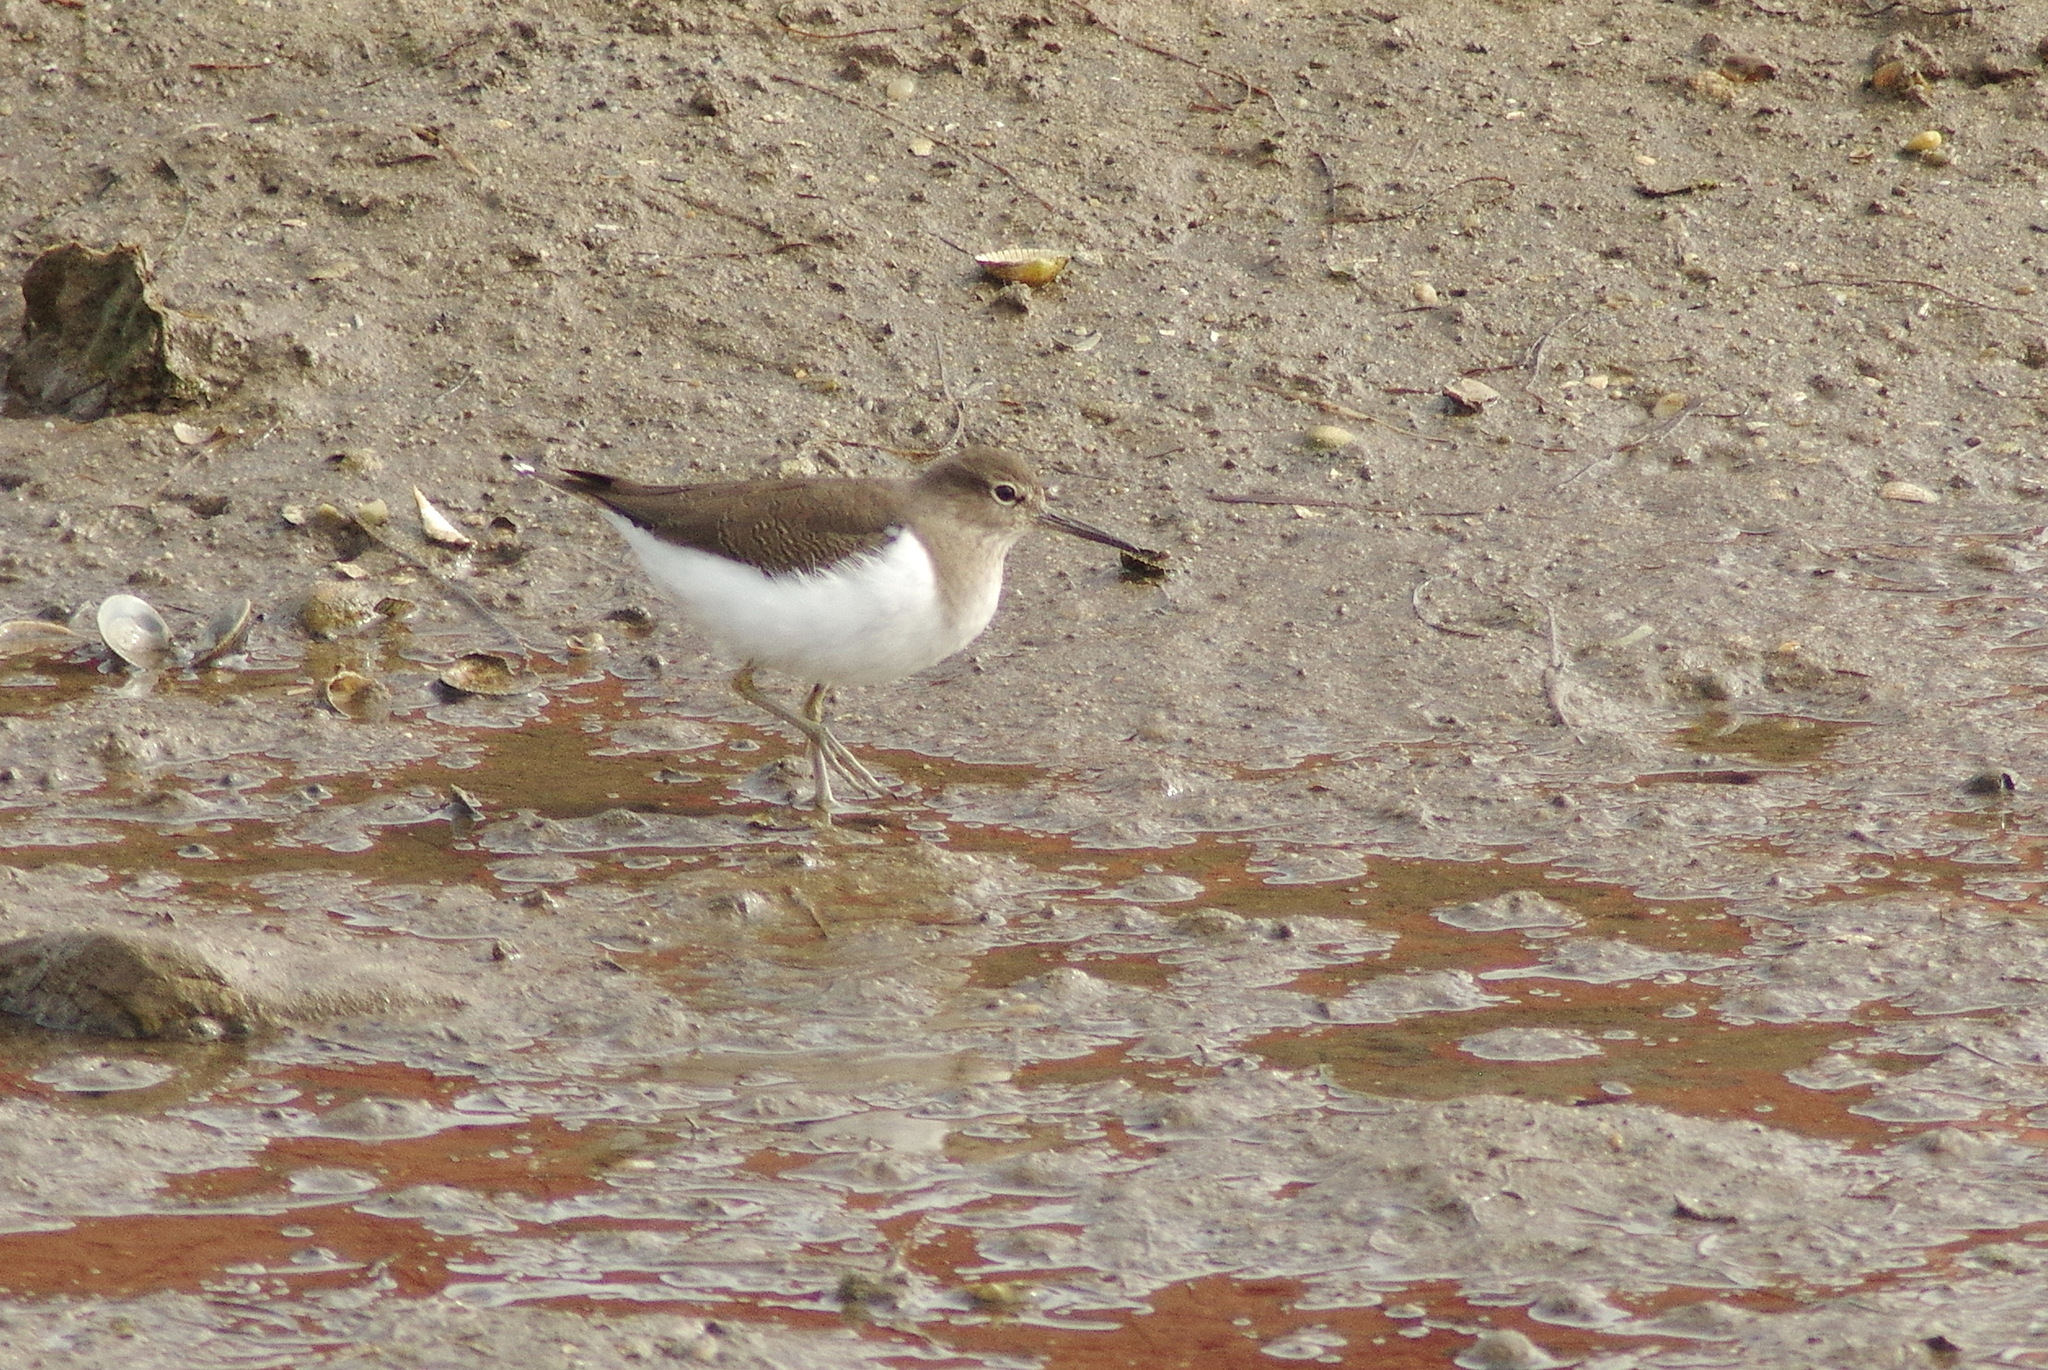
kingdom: Animalia
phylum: Chordata
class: Aves
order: Charadriiformes
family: Scolopacidae
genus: Actitis
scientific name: Actitis hypoleucos
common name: Common sandpiper
